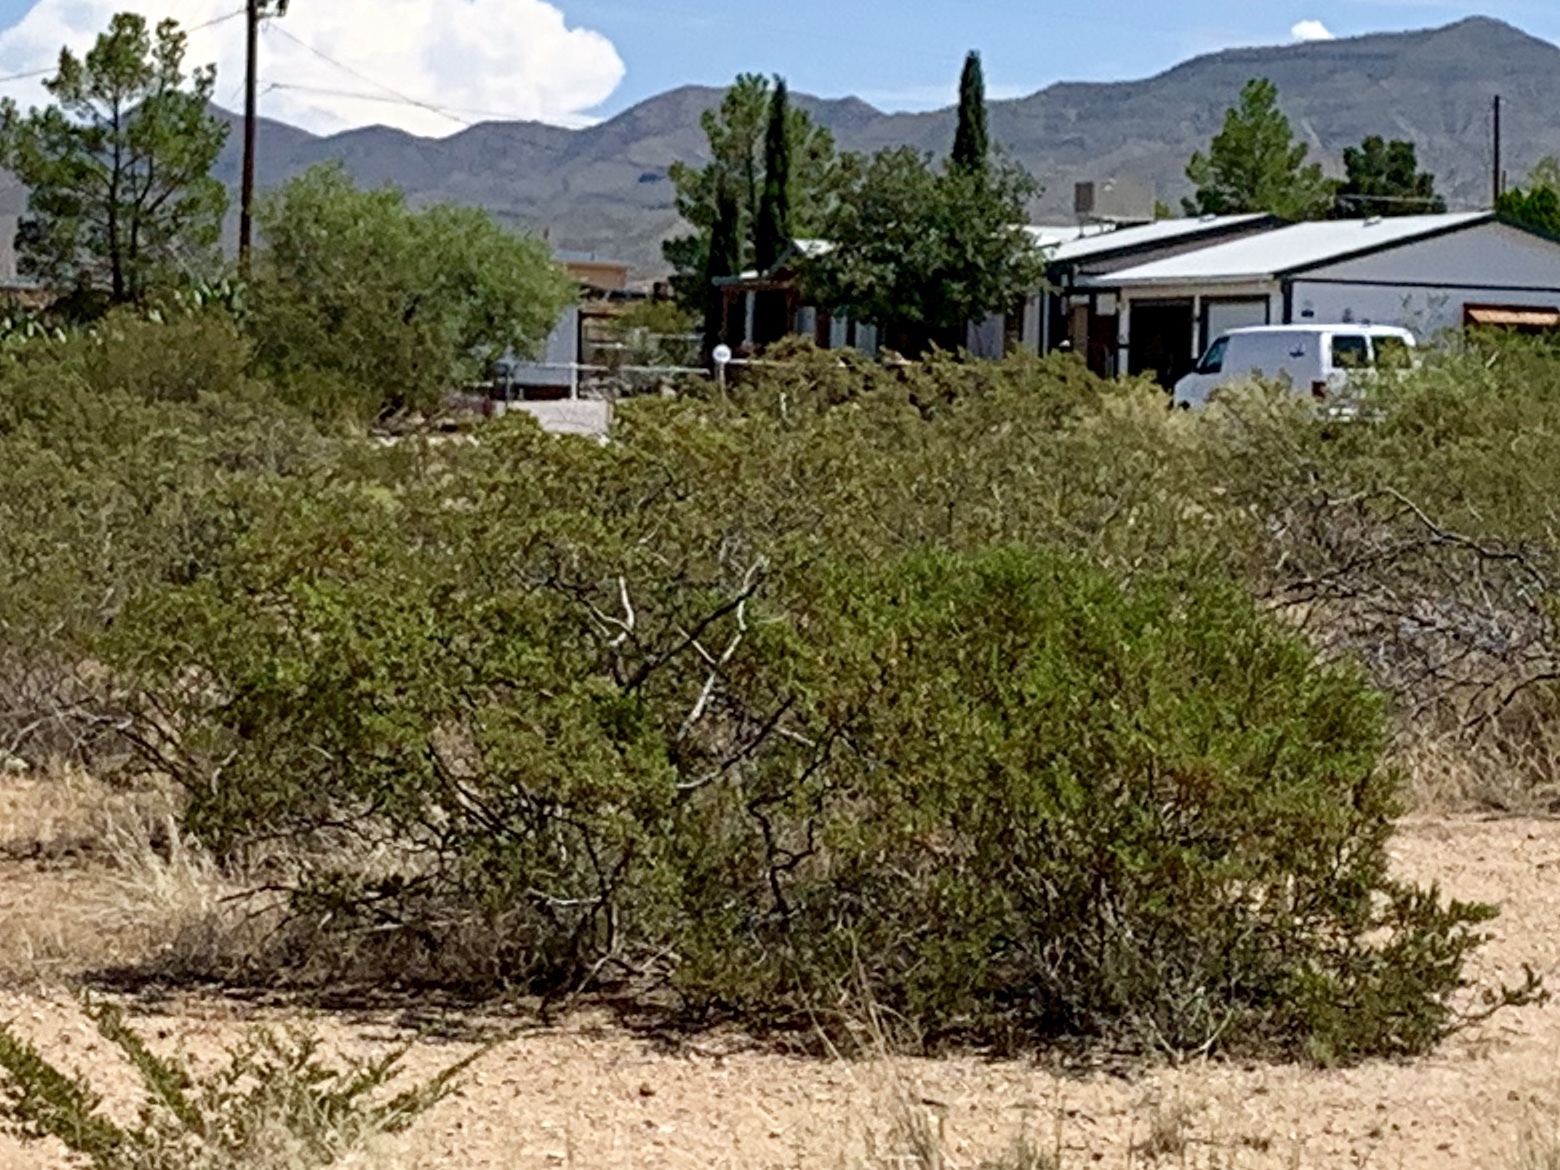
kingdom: Plantae
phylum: Tracheophyta
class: Magnoliopsida
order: Zygophyllales
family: Zygophyllaceae
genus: Larrea
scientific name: Larrea tridentata
